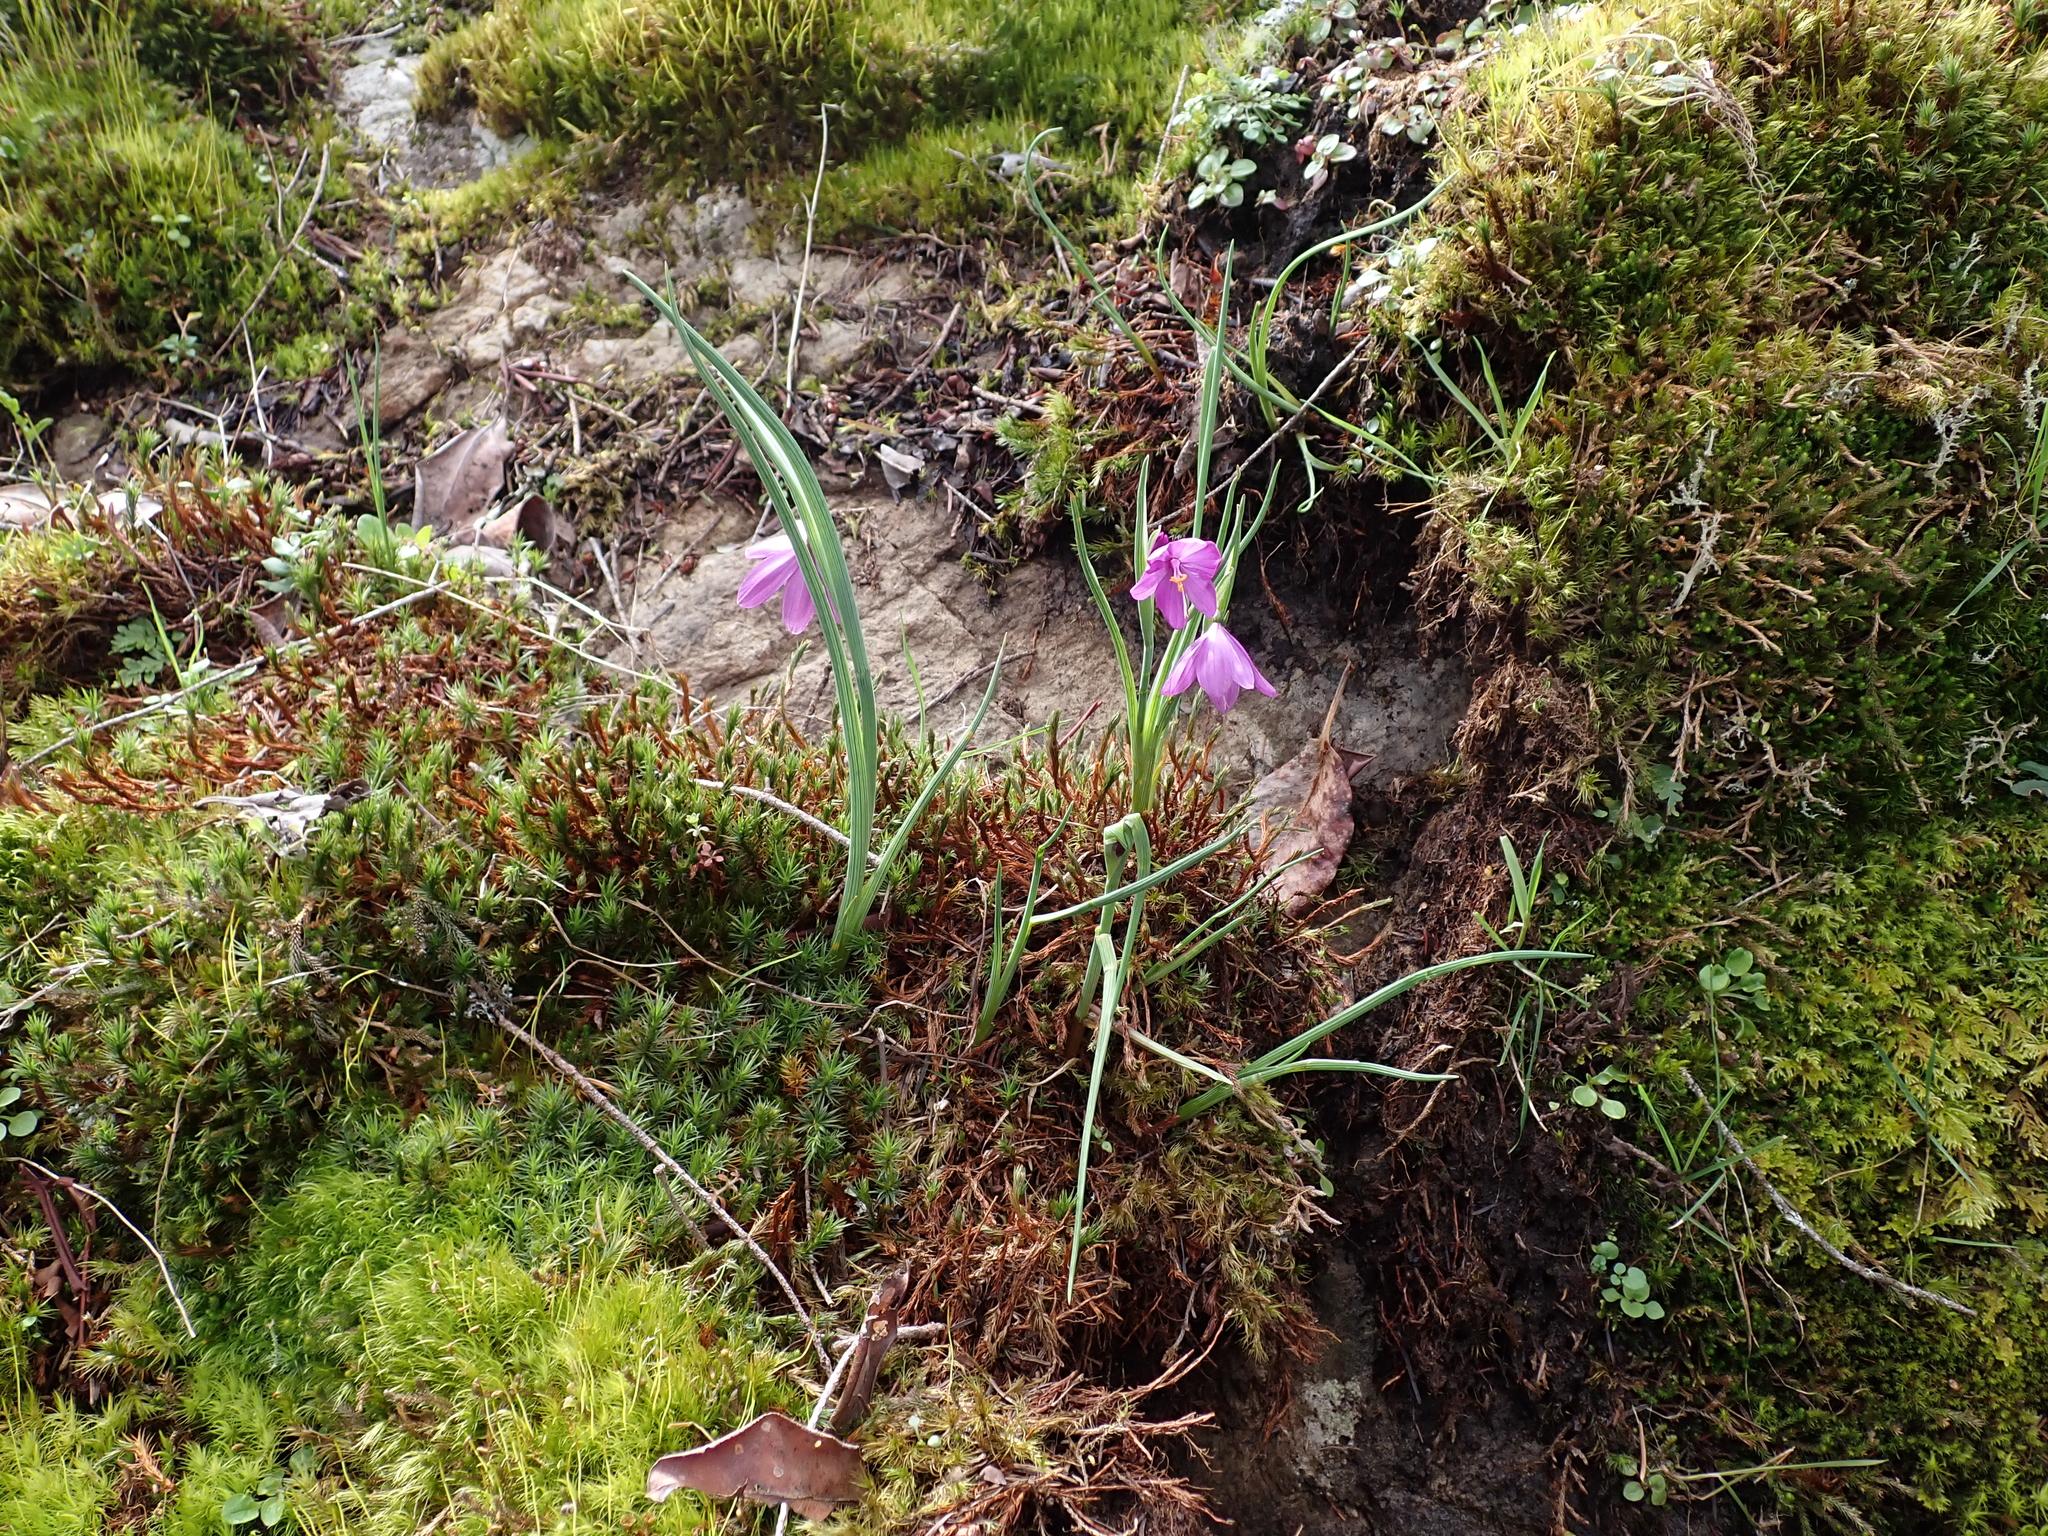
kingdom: Plantae
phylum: Tracheophyta
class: Liliopsida
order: Asparagales
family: Iridaceae
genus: Olsynium
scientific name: Olsynium douglasii
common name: Douglas' grasswidow
